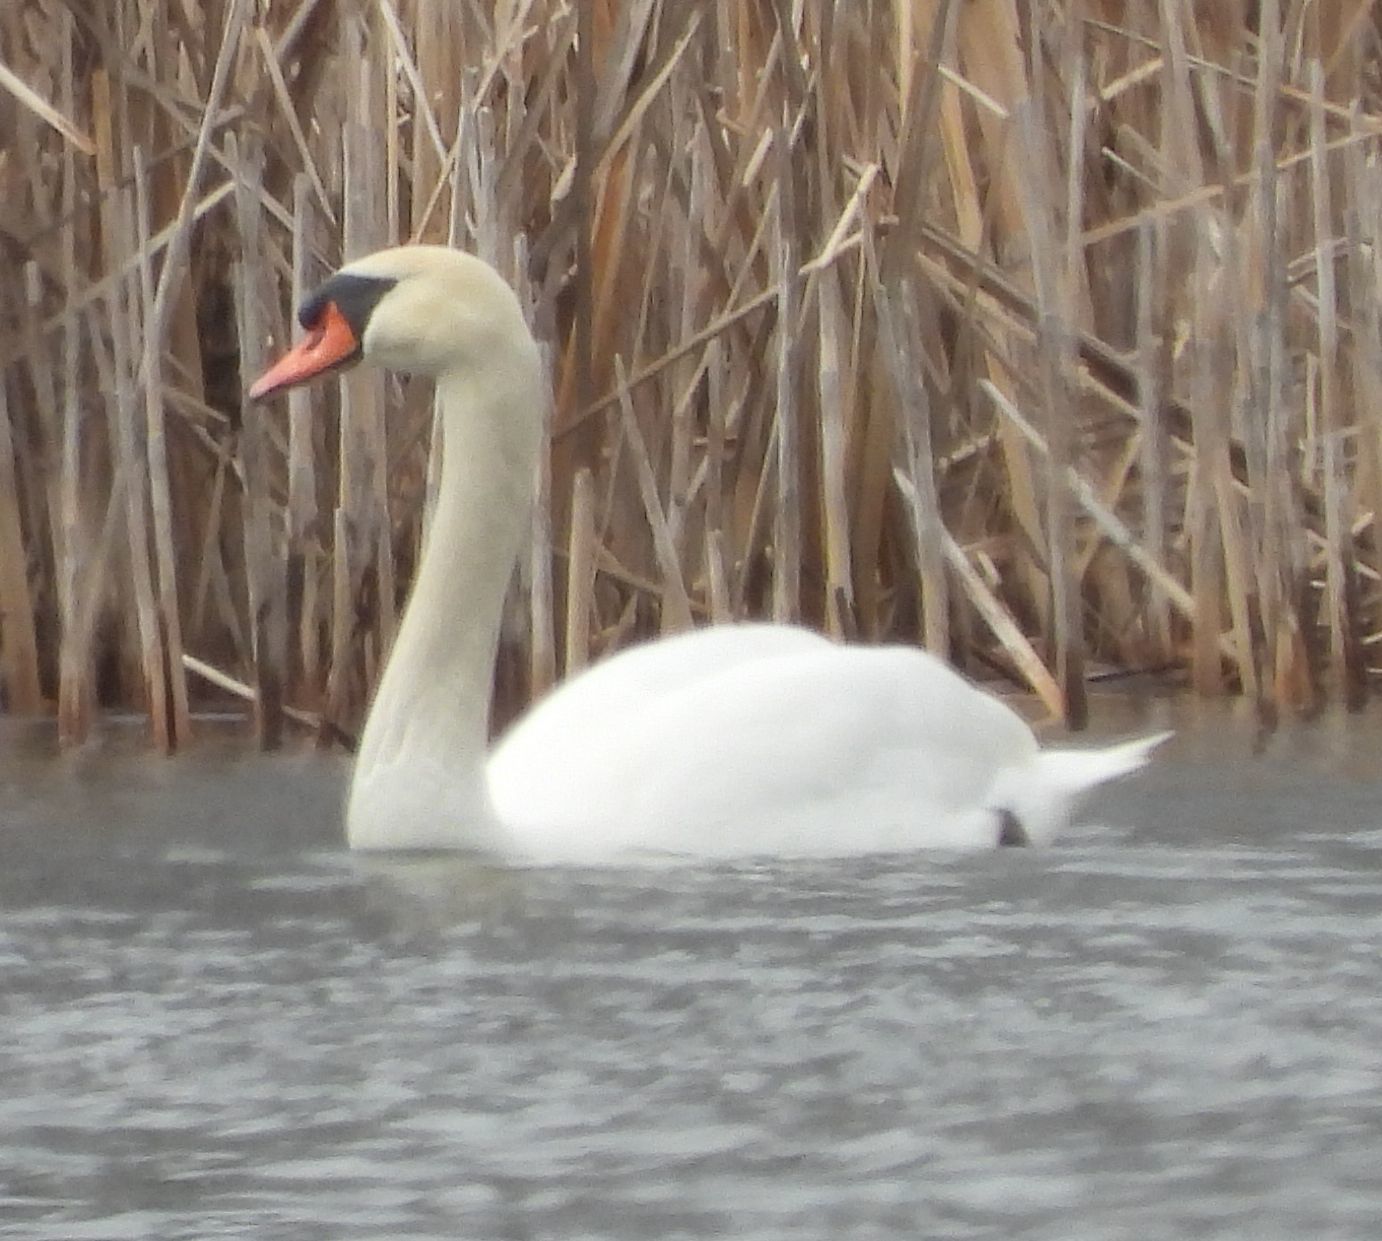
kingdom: Animalia
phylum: Chordata
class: Aves
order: Anseriformes
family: Anatidae
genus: Cygnus
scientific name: Cygnus olor
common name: Mute swan
